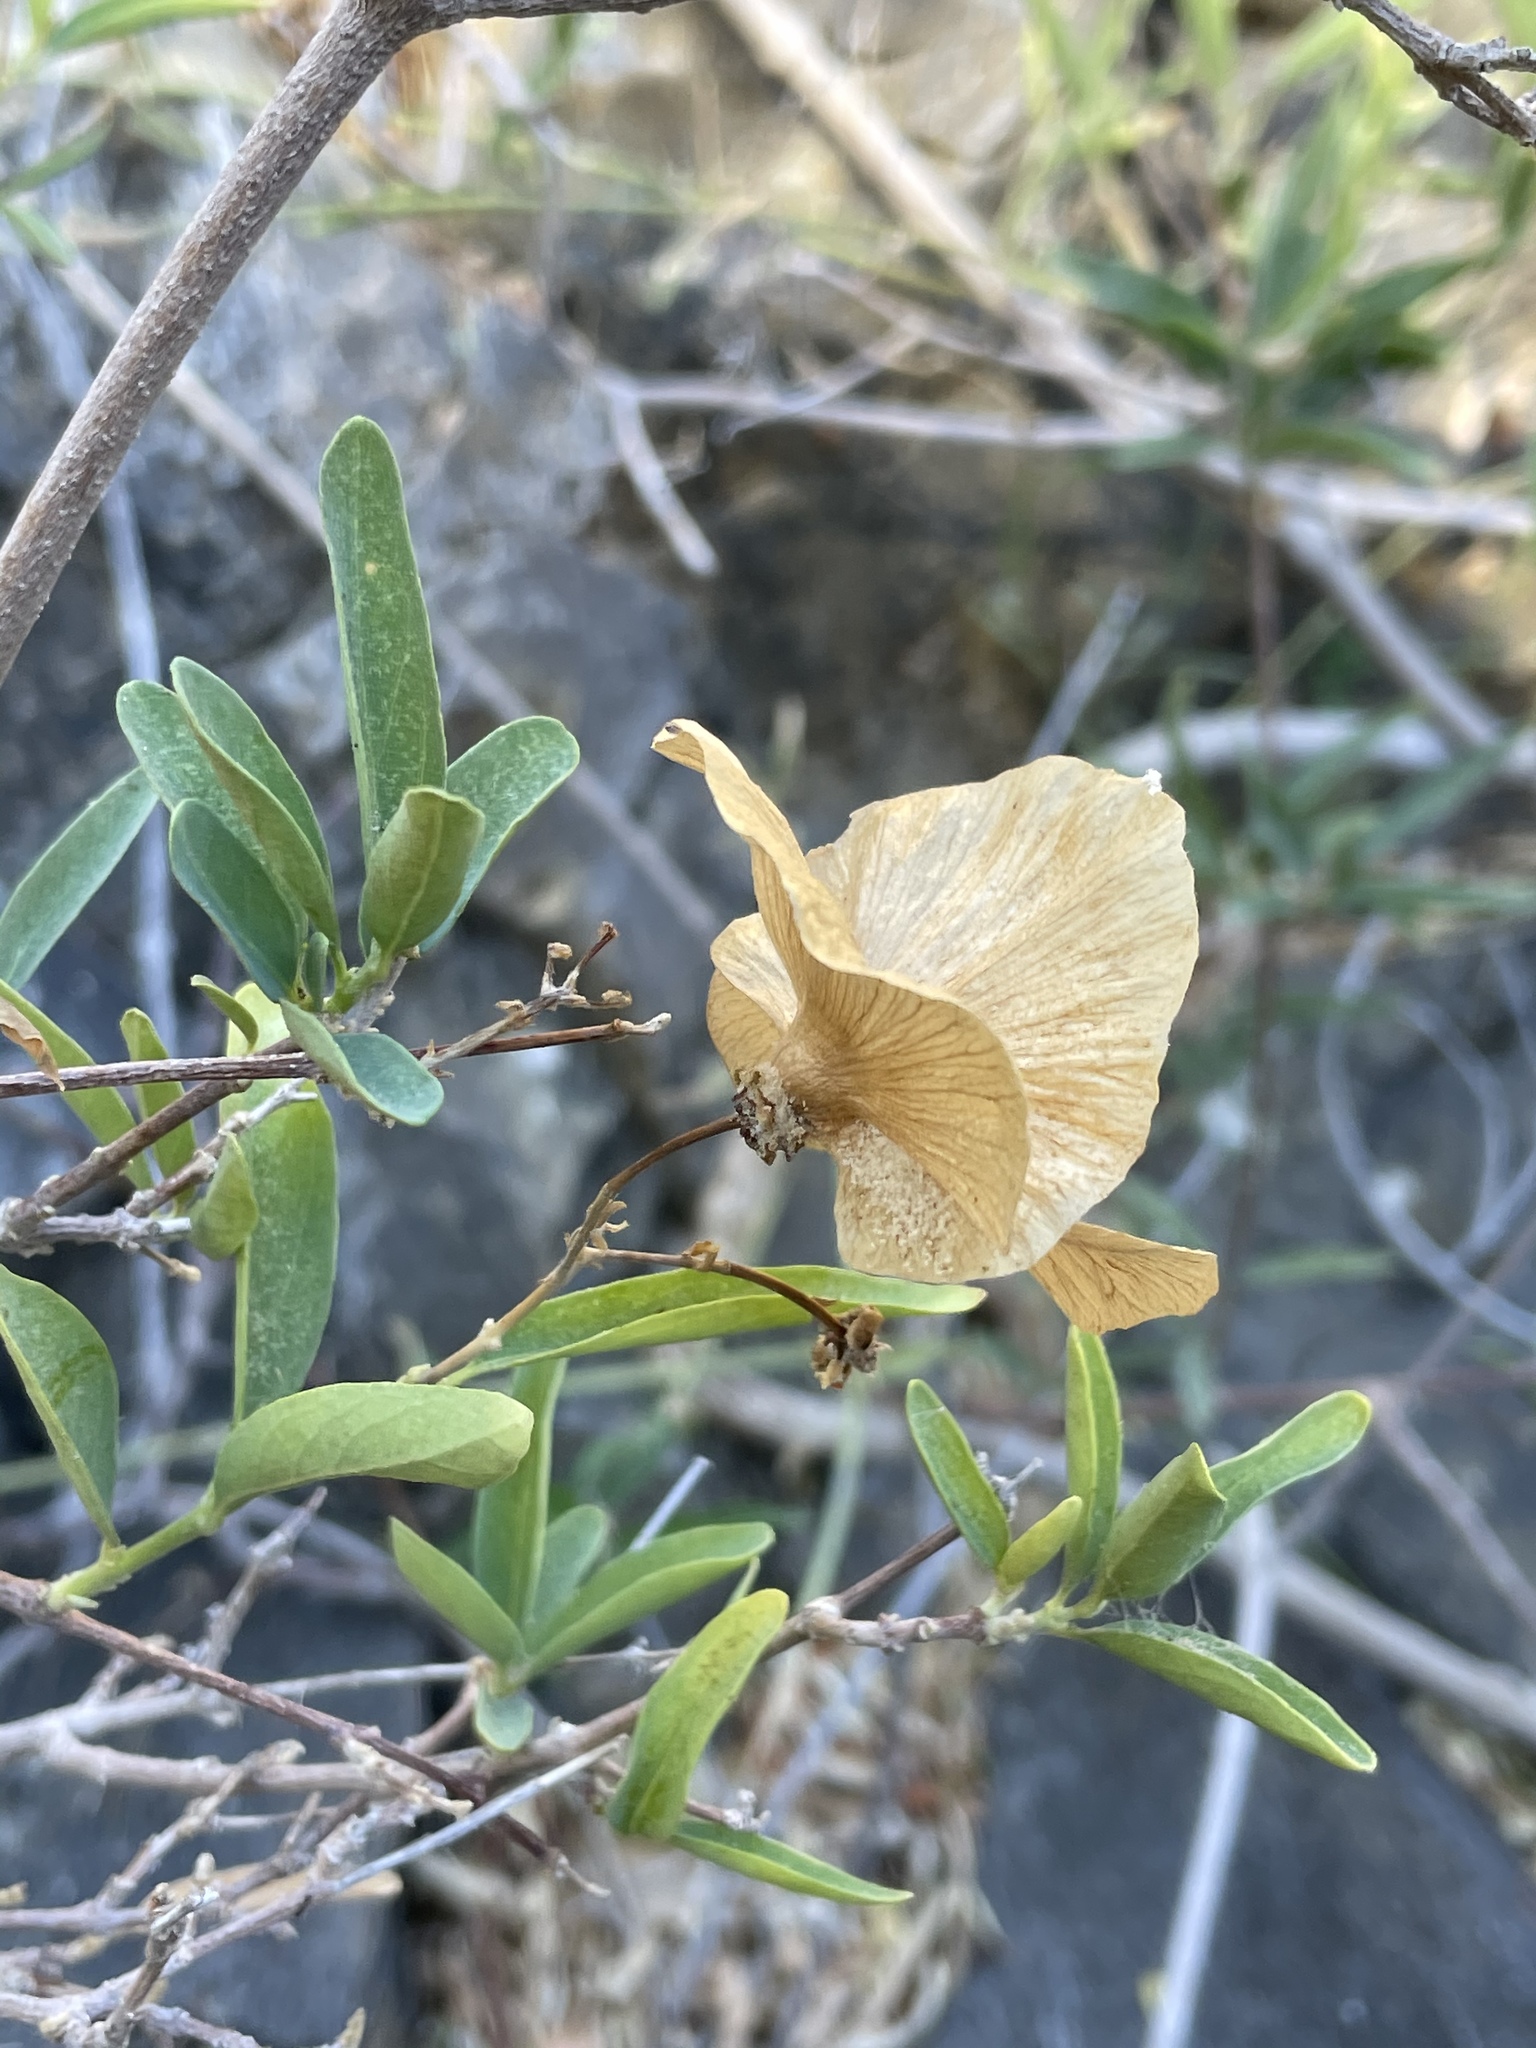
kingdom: Plantae
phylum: Tracheophyta
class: Magnoliopsida
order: Malpighiales
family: Malpighiaceae
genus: Callaeum
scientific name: Callaeum macropterum
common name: Mexican butterfly-vine
